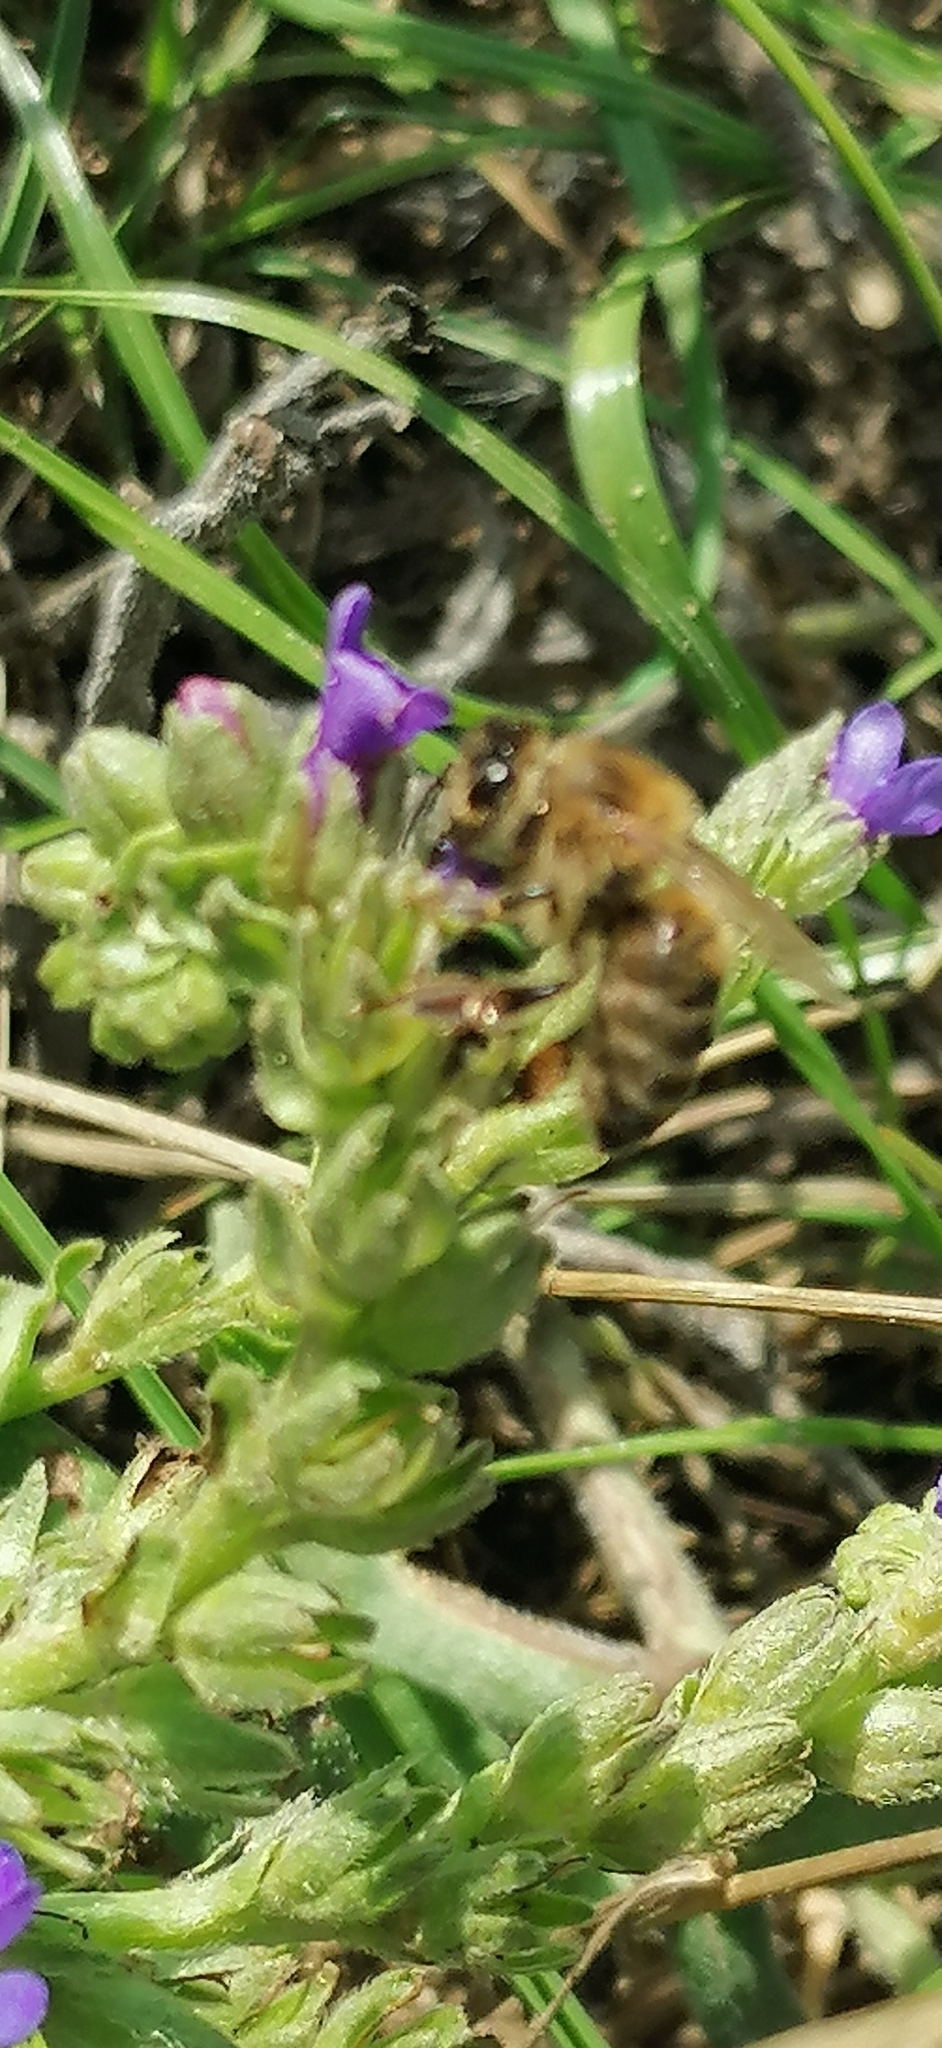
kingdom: Animalia
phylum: Arthropoda
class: Insecta
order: Hymenoptera
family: Apidae
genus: Apis
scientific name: Apis mellifera
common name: Honey bee
